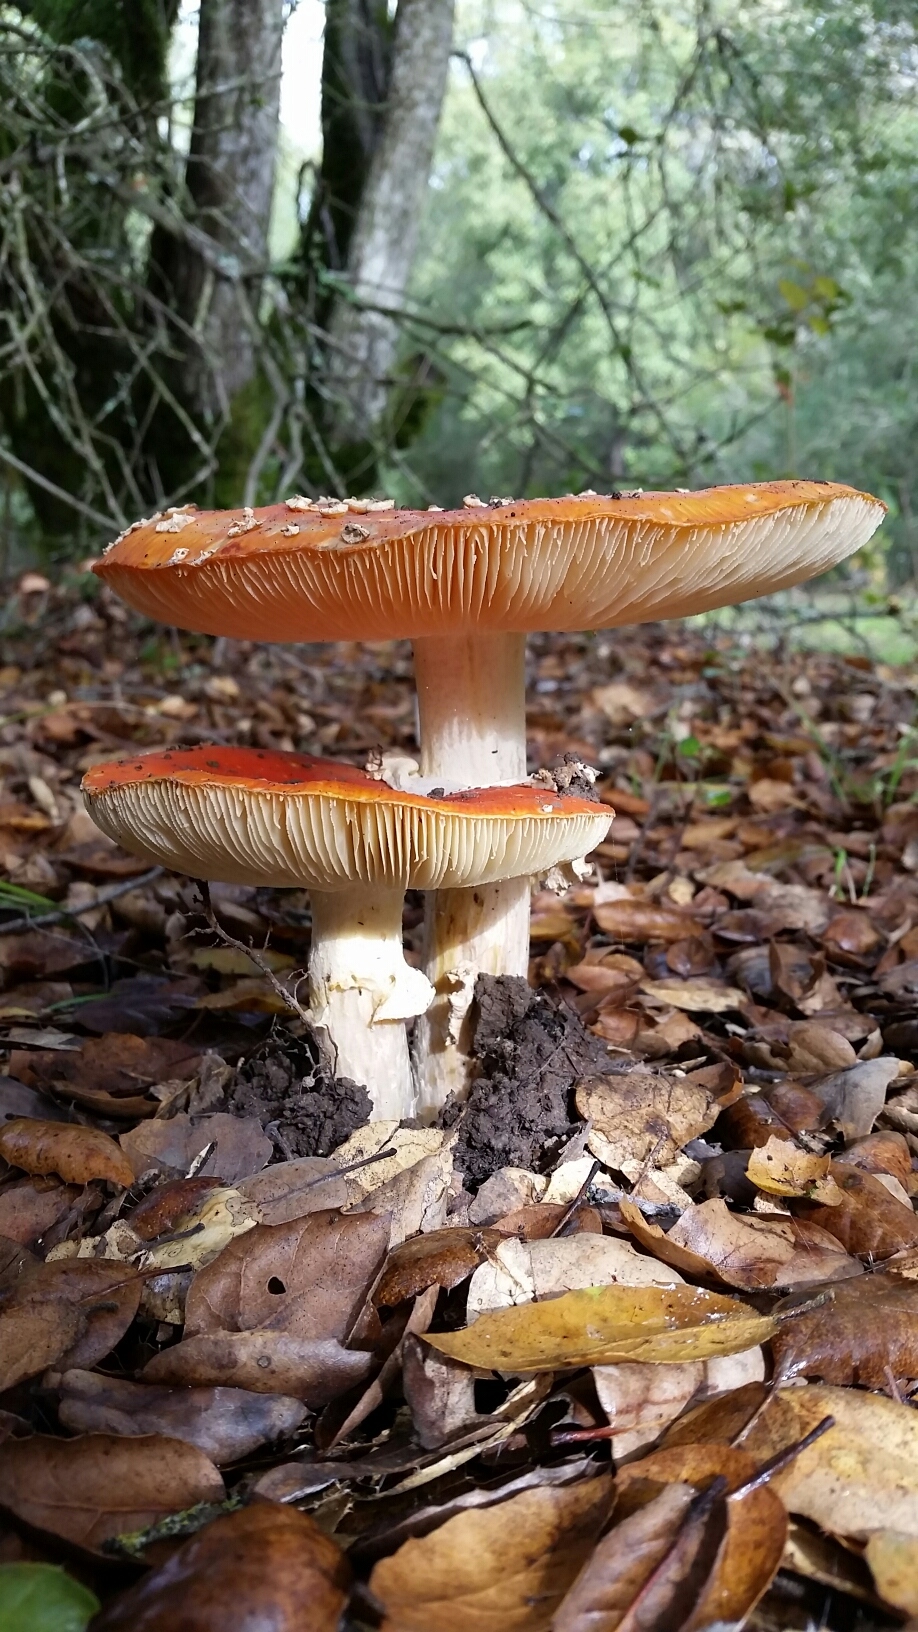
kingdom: Fungi
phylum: Basidiomycota
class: Agaricomycetes
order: Agaricales
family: Amanitaceae
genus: Amanita
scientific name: Amanita muscaria
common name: Fly agaric
